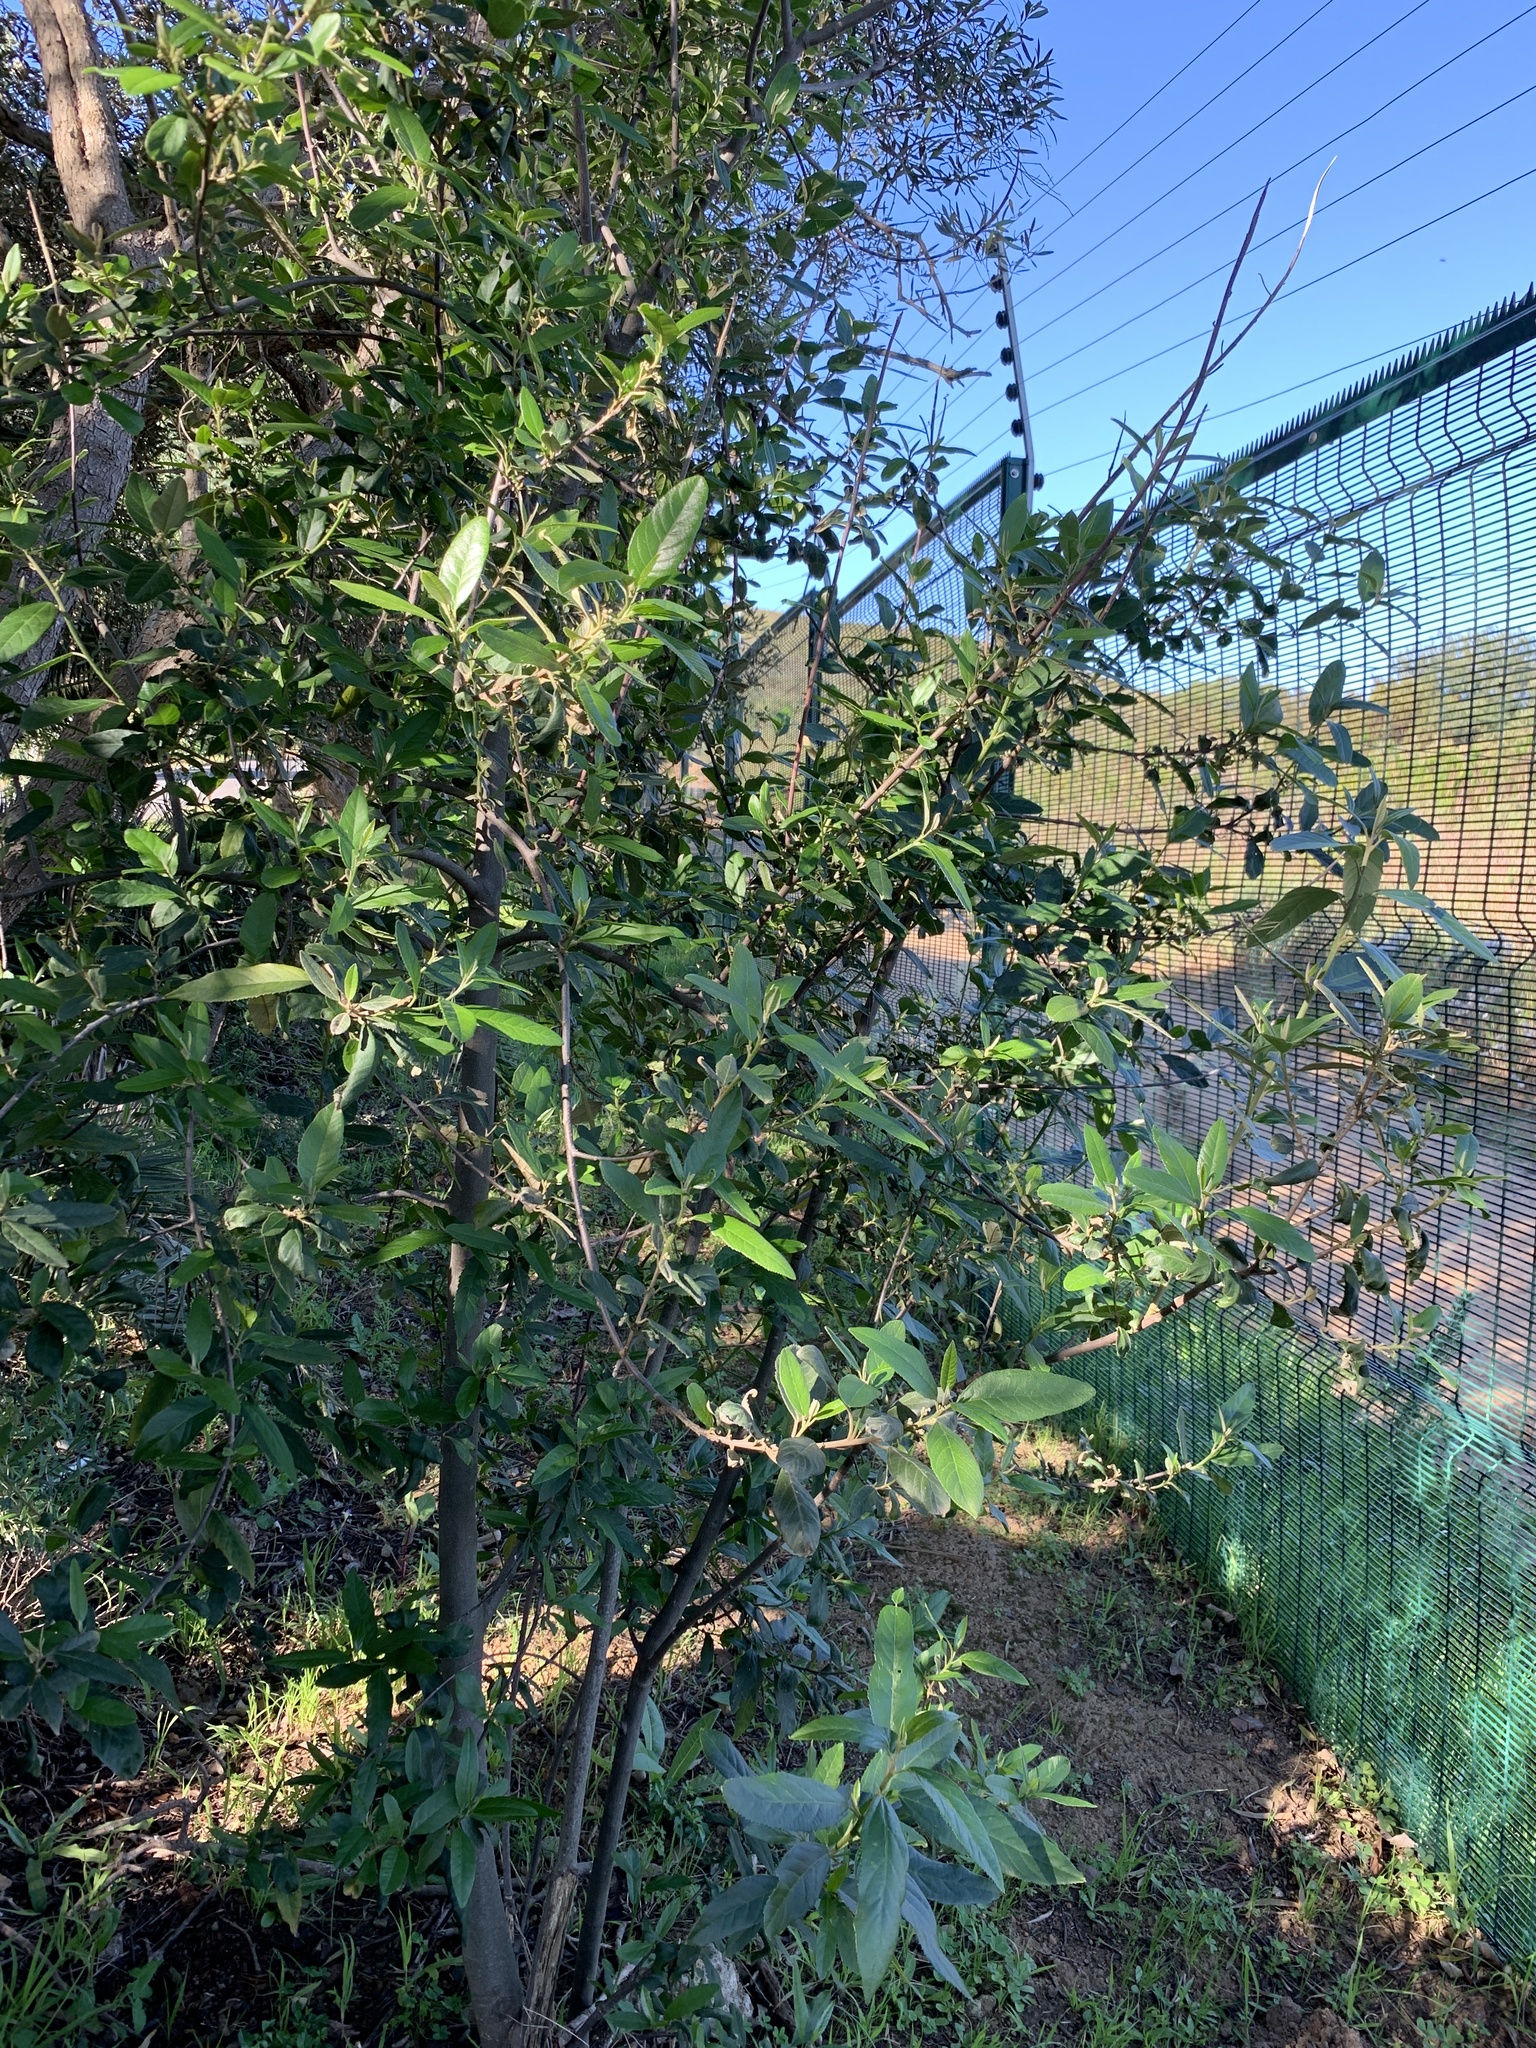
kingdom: Plantae
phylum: Tracheophyta
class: Magnoliopsida
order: Malpighiales
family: Achariaceae
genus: Kiggelaria
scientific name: Kiggelaria africana
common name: Wild peach
